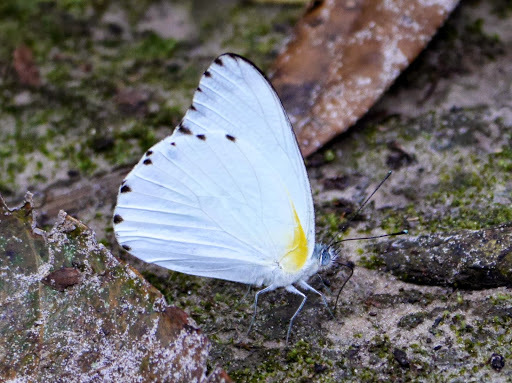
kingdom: Animalia
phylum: Arthropoda
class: Insecta
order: Lepidoptera
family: Pieridae
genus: Glutophrissa
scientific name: Glutophrissa sabina
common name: Sabine albatross
